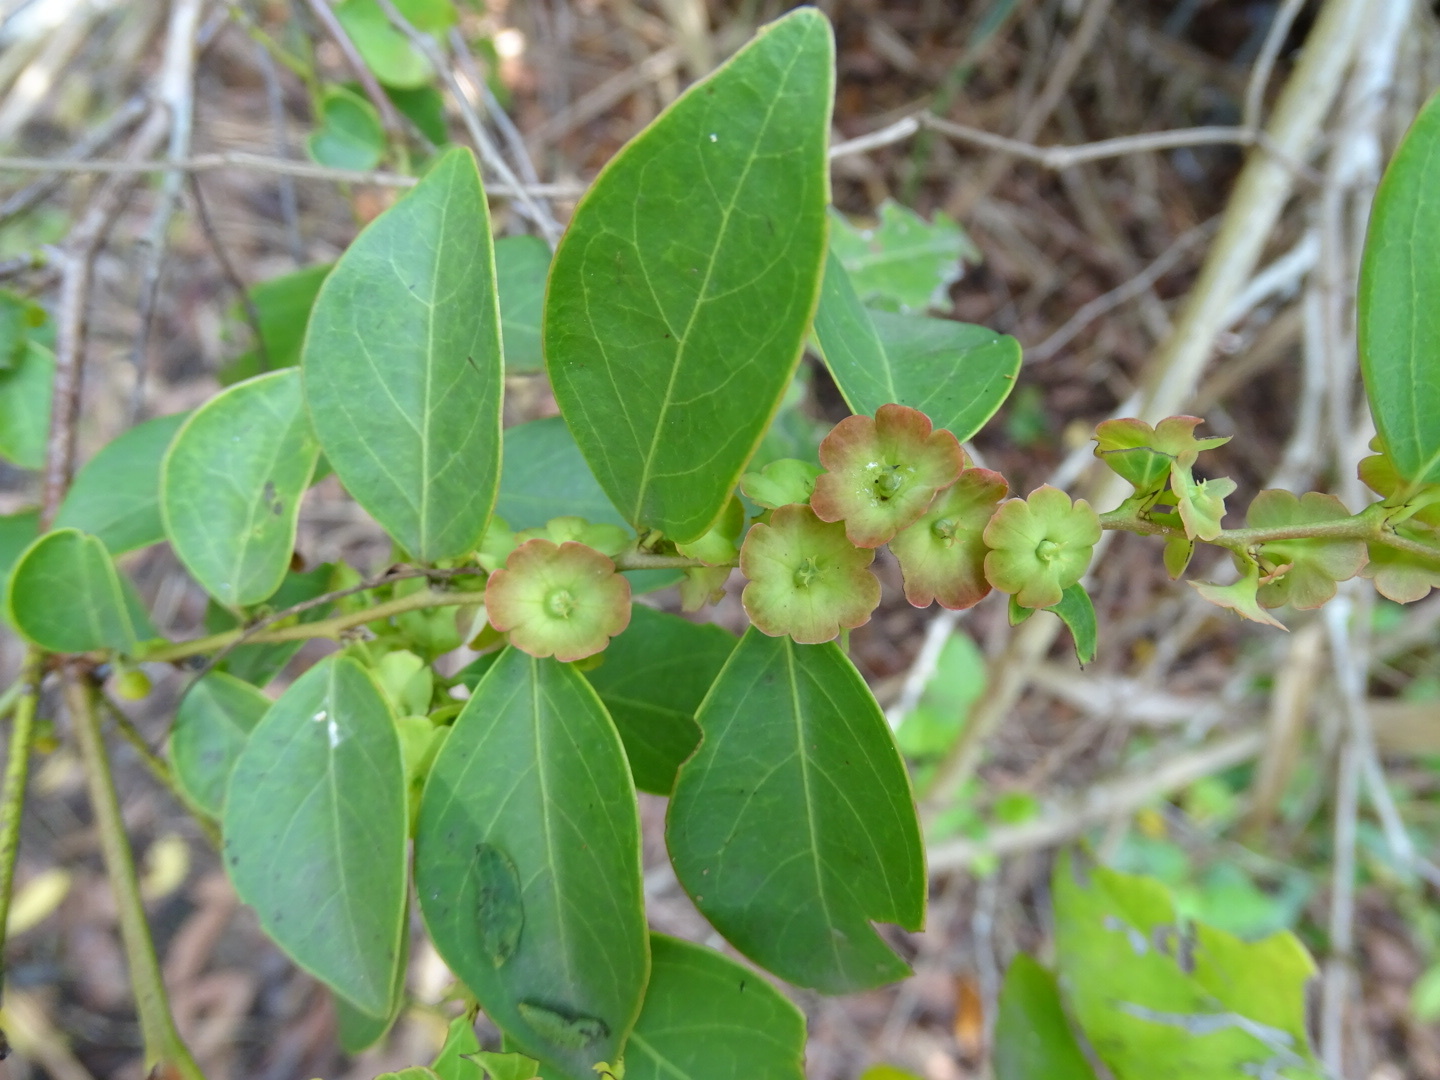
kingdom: Plantae
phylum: Tracheophyta
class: Magnoliopsida
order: Malpighiales
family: Phyllanthaceae
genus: Breynia
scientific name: Breynia fruticosa
